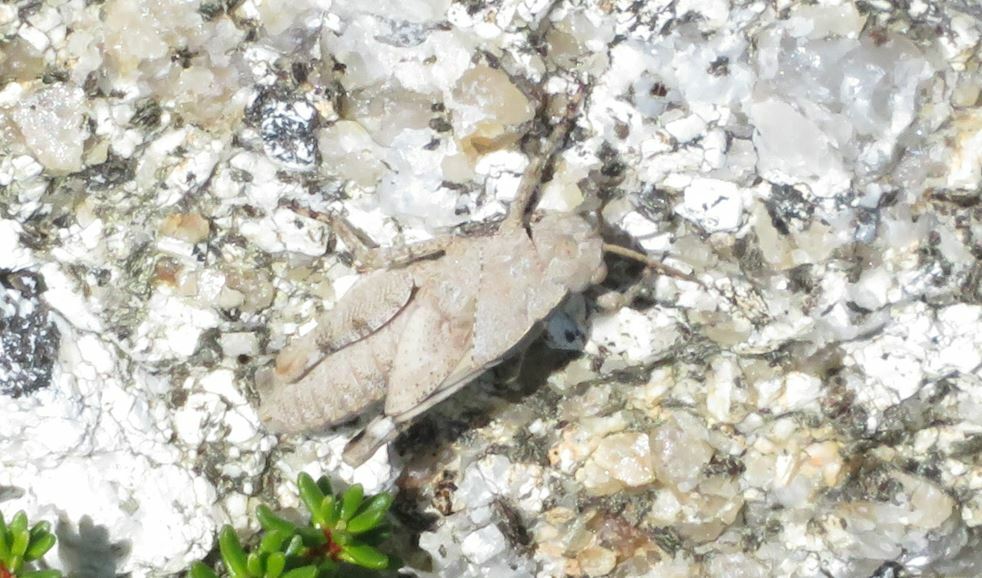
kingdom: Animalia
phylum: Arthropoda
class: Insecta
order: Orthoptera
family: Acrididae
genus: Dissosteira
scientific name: Dissosteira carolina
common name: Carolina grasshopper
